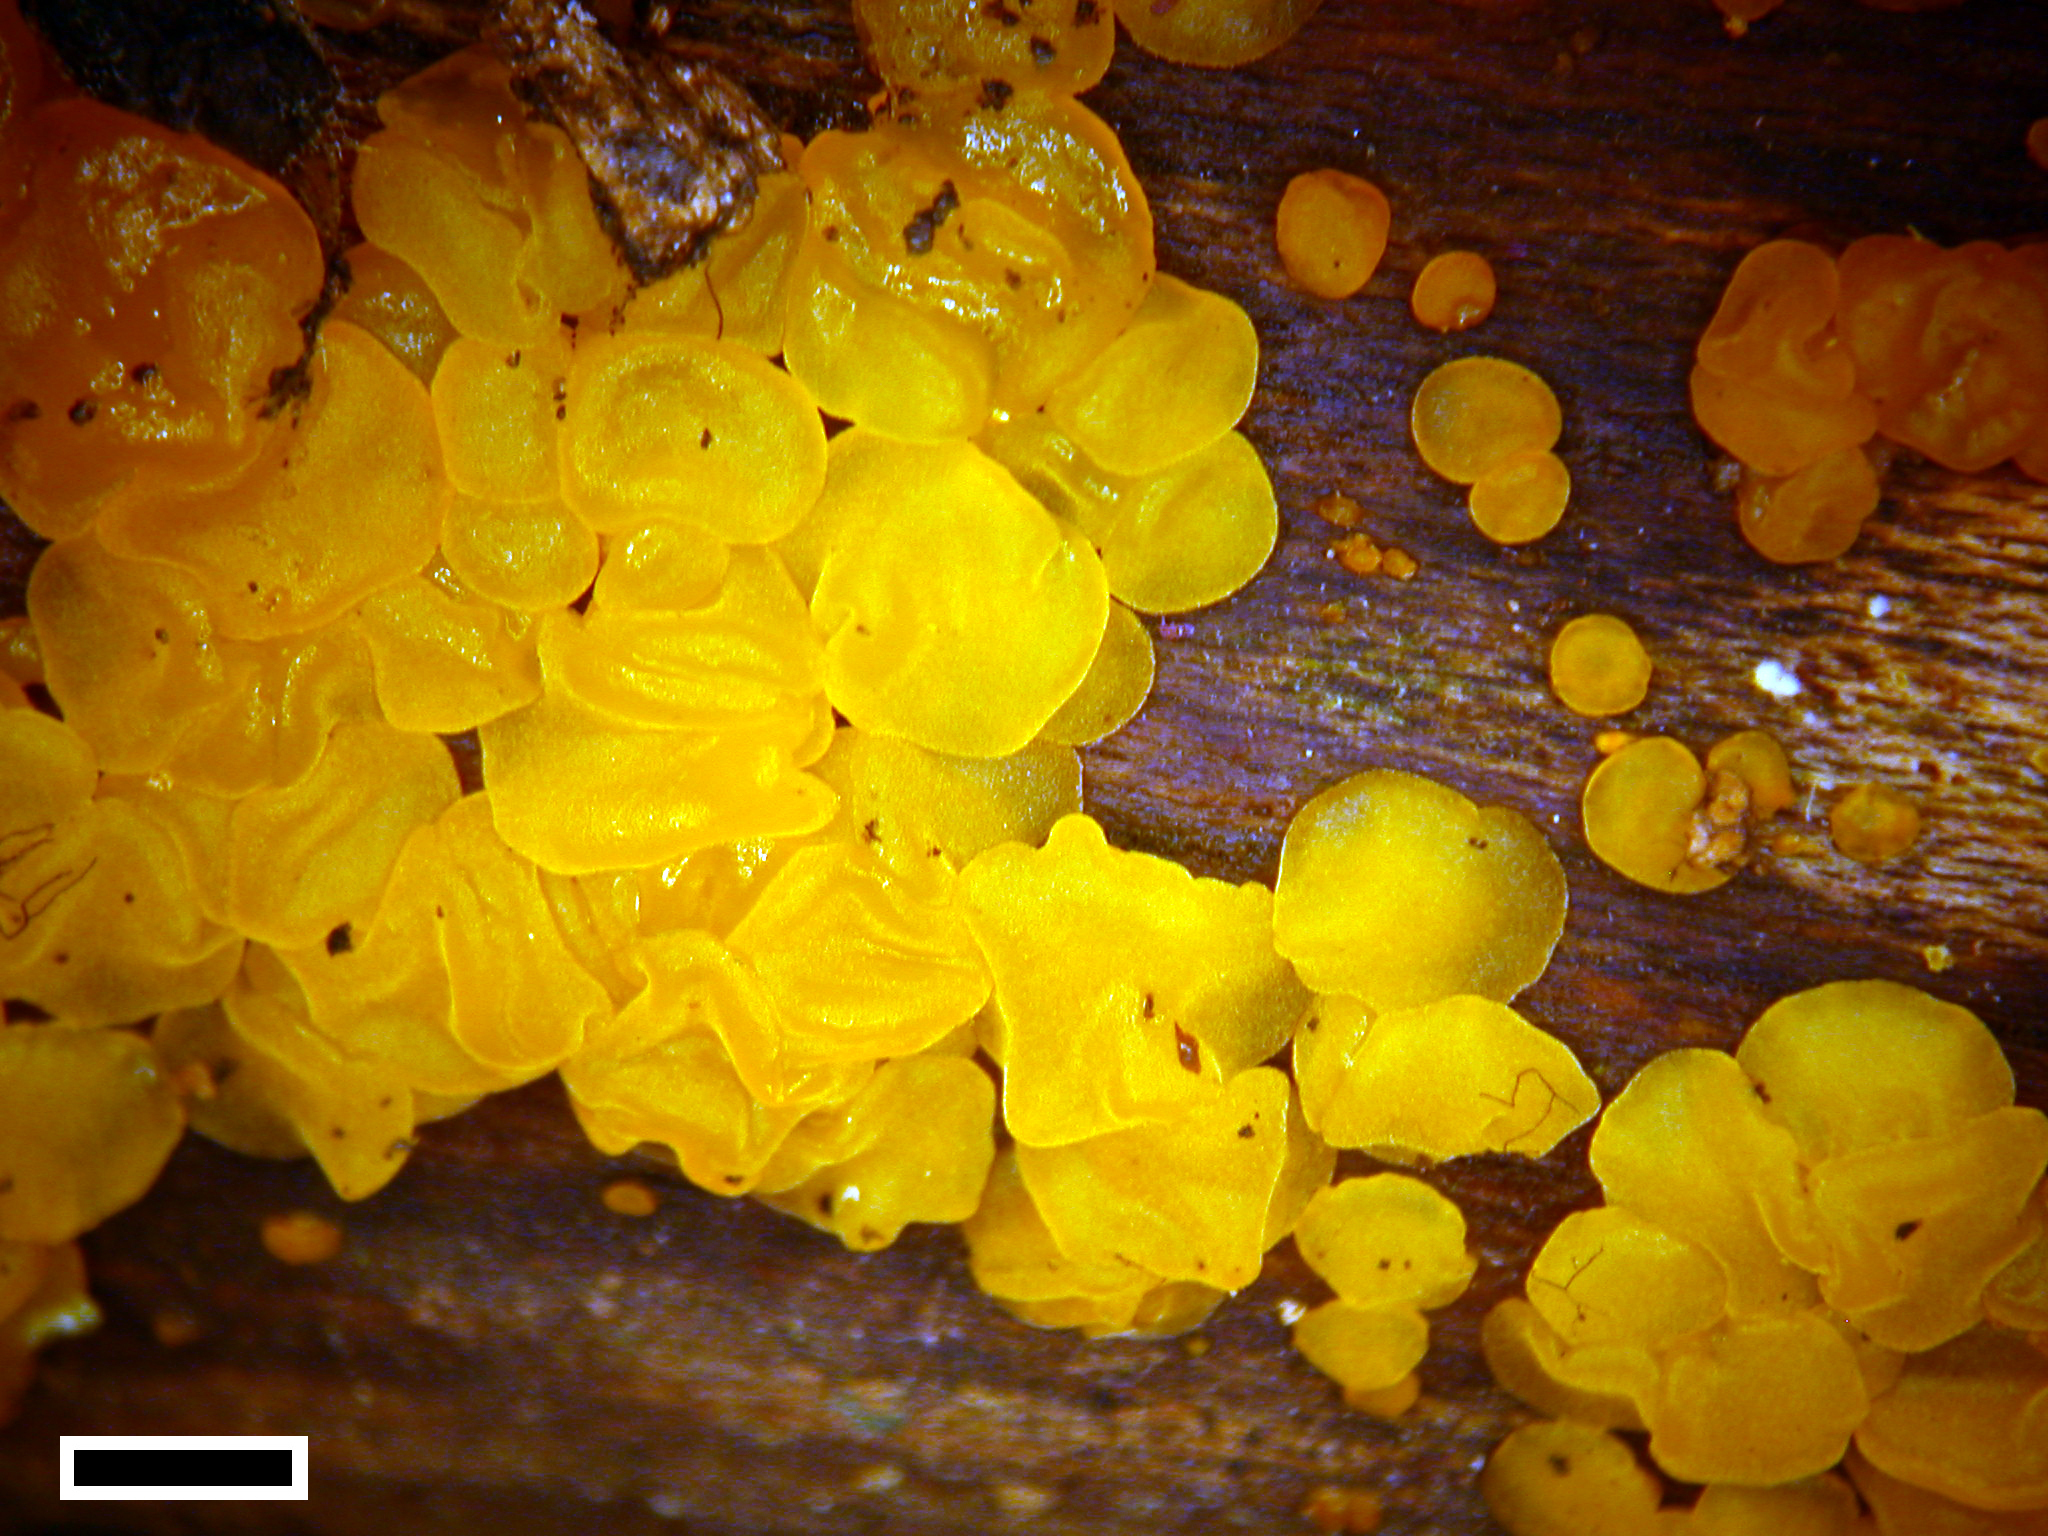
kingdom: Fungi
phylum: Basidiomycota
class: Dacrymycetes
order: Dacrymycetales
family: Dacrymycetaceae
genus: Dacrymyces
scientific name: Dacrymyces lacrymalis
